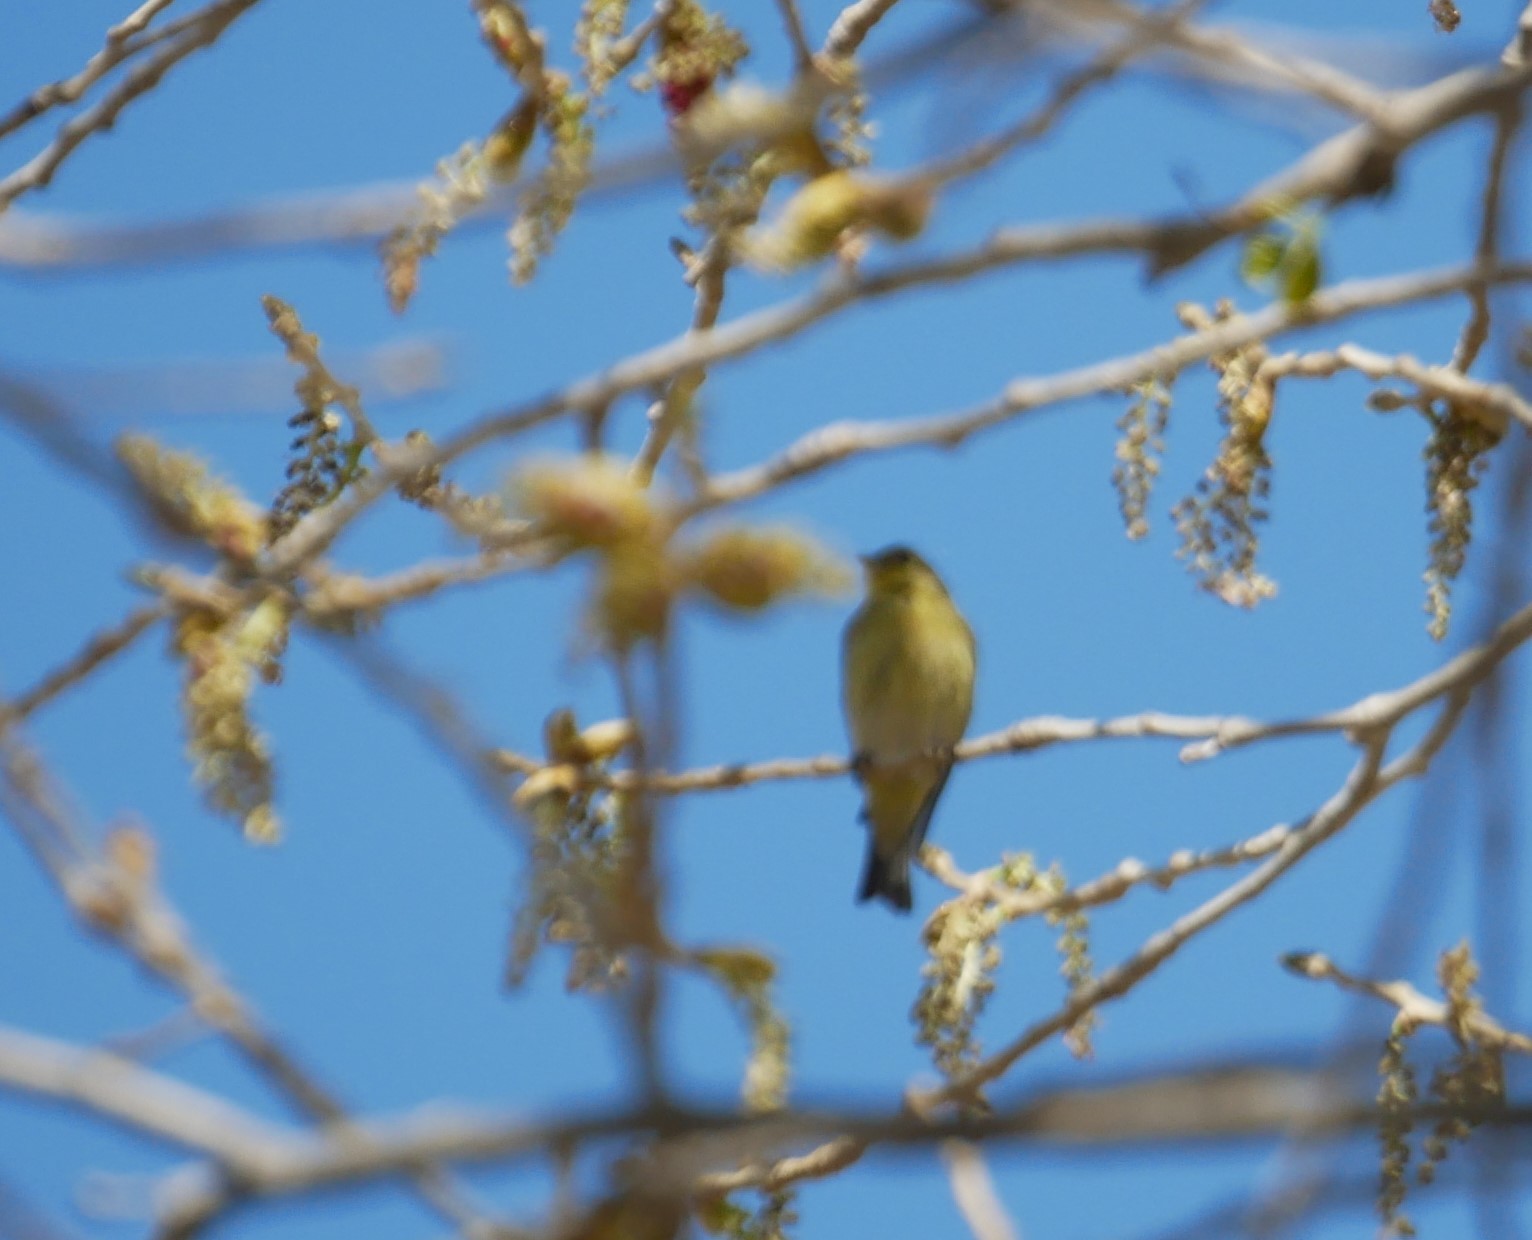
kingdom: Animalia
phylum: Chordata
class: Aves
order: Passeriformes
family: Fringillidae
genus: Spinus
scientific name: Spinus psaltria
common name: Lesser goldfinch
